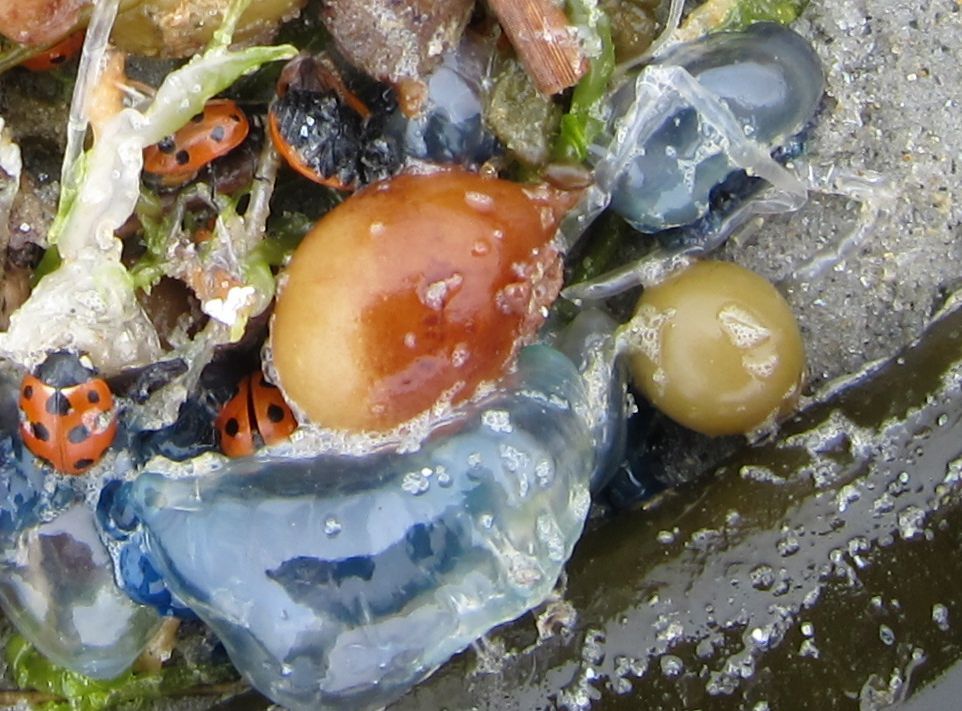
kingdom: Animalia
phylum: Cnidaria
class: Hydrozoa
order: Siphonophorae
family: Physaliidae
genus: Physalia
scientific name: Physalia physalis
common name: Portuguese man-of-war
